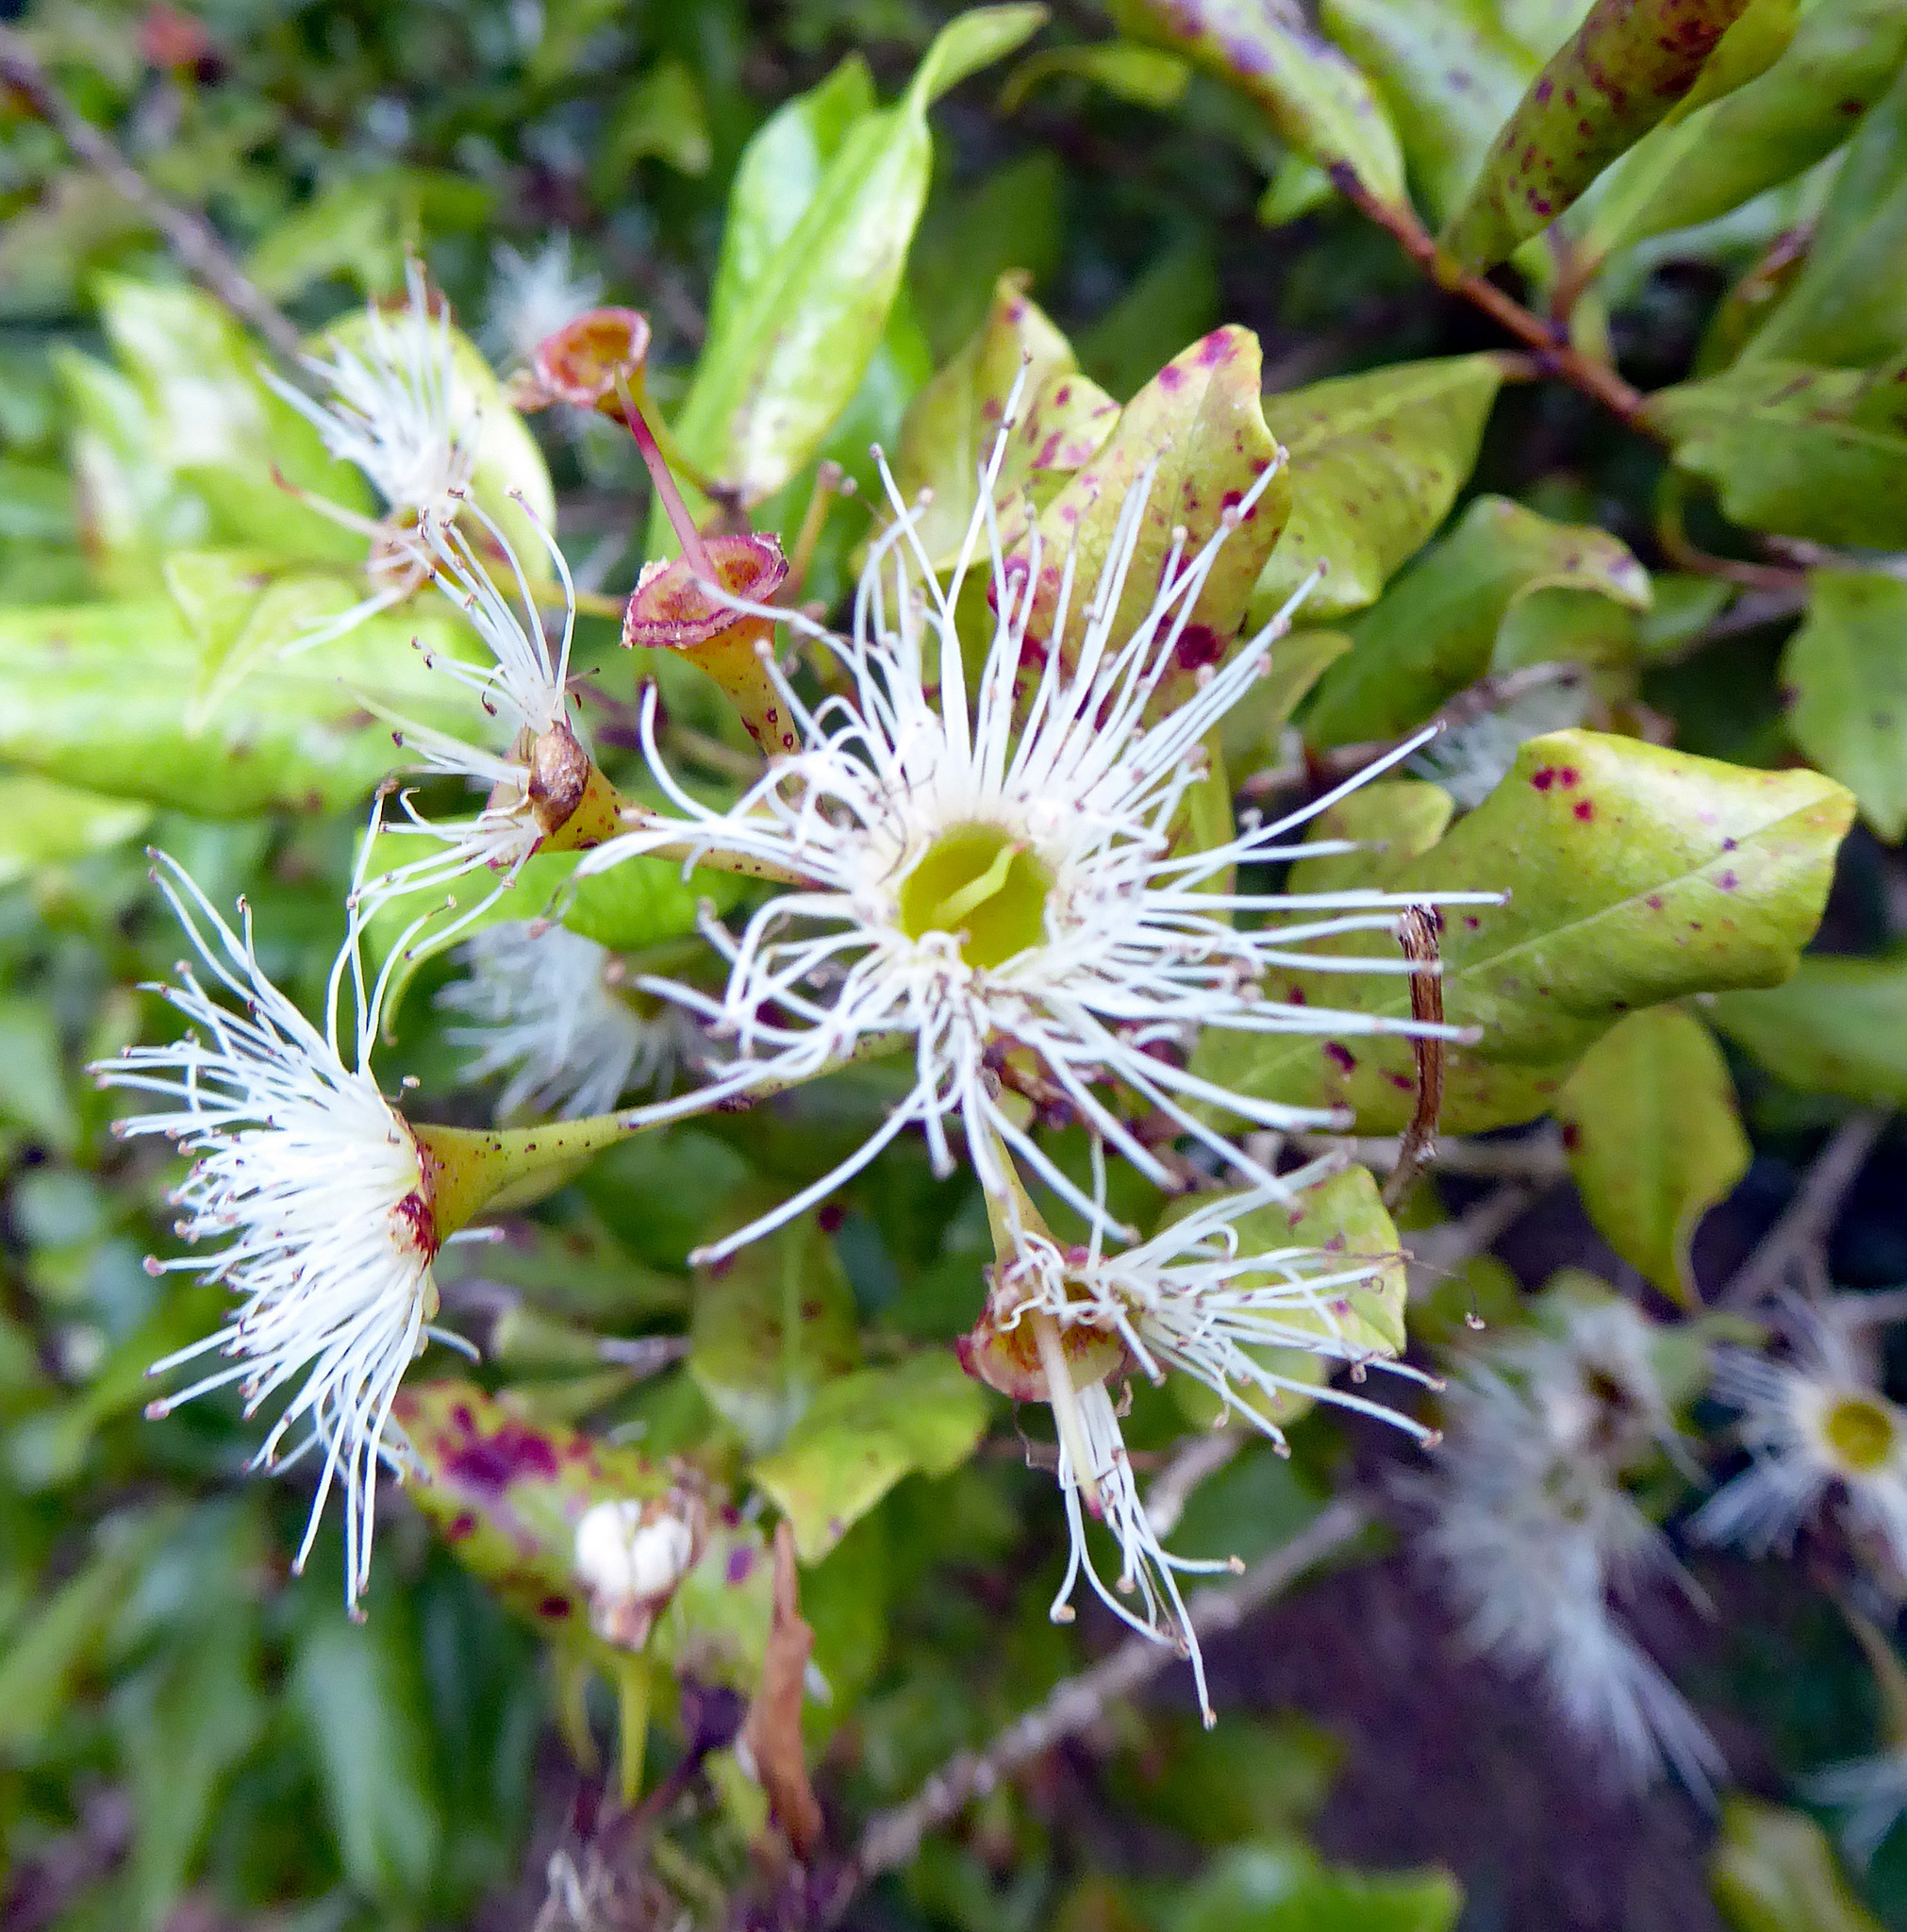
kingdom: Plantae
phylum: Tracheophyta
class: Magnoliopsida
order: Myrtales
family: Myrtaceae
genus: Syzygium
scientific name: Syzygium maire
